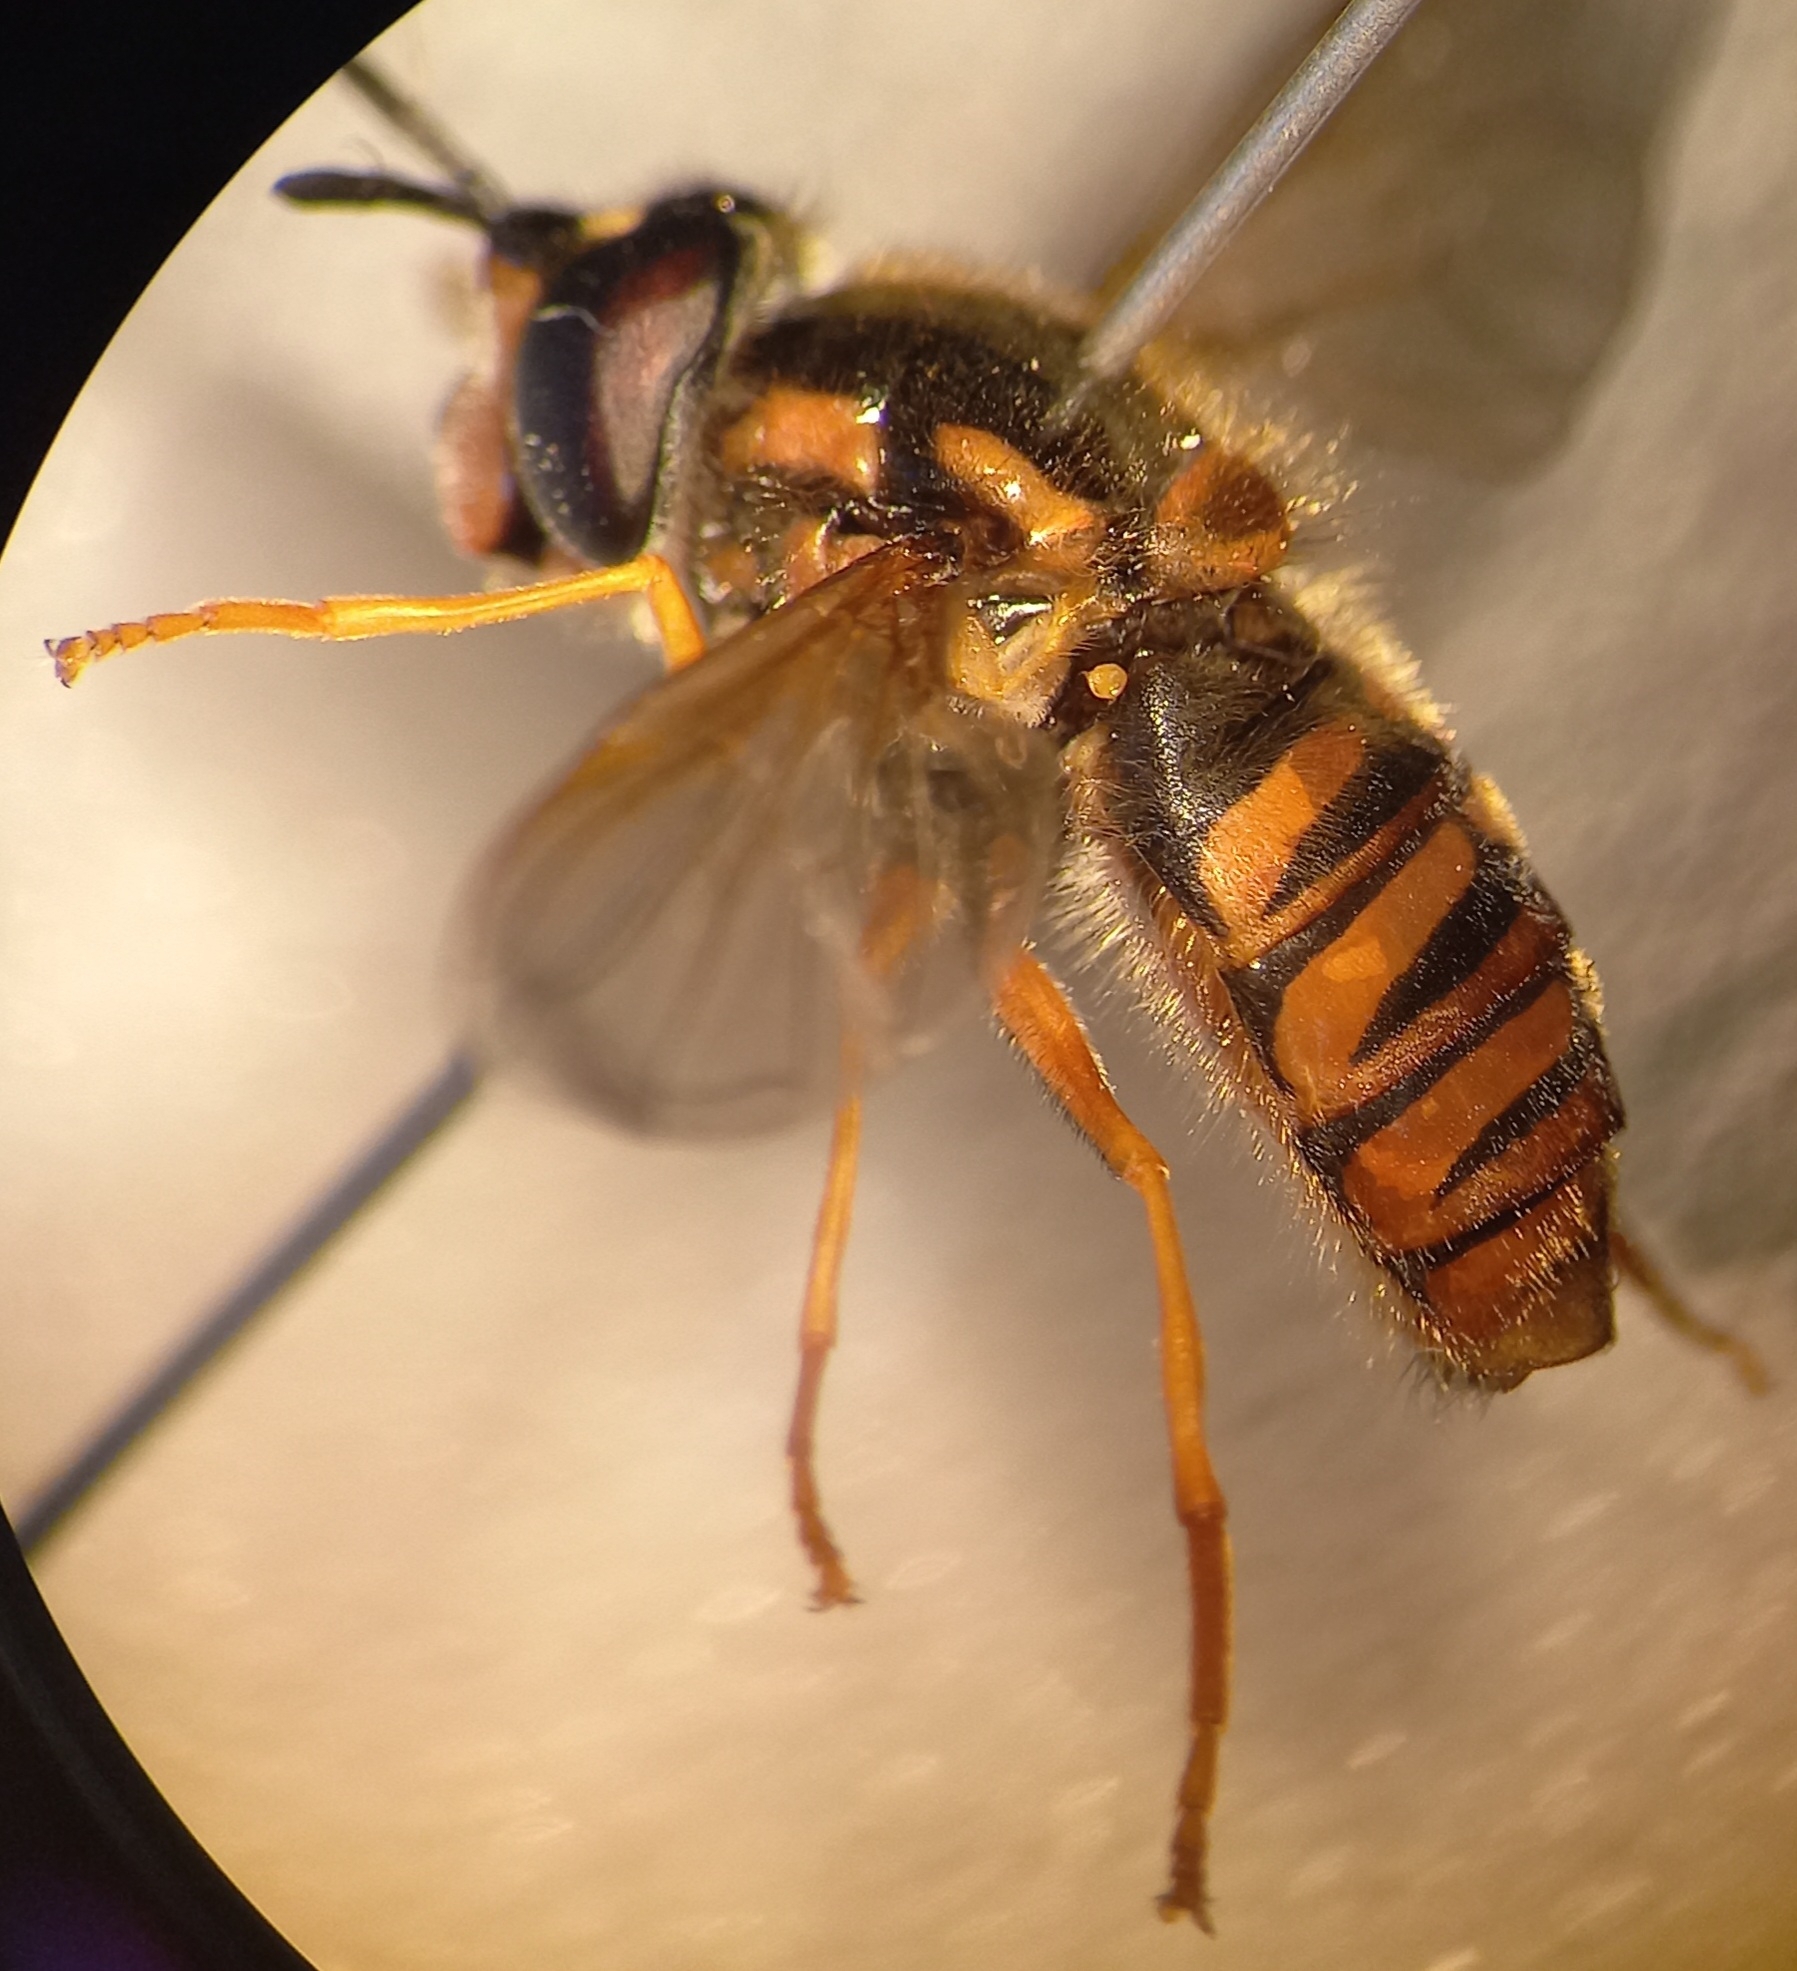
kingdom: Animalia
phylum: Arthropoda
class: Insecta
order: Diptera
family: Syrphidae
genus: Chrysotoxum
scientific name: Chrysotoxum cautum
